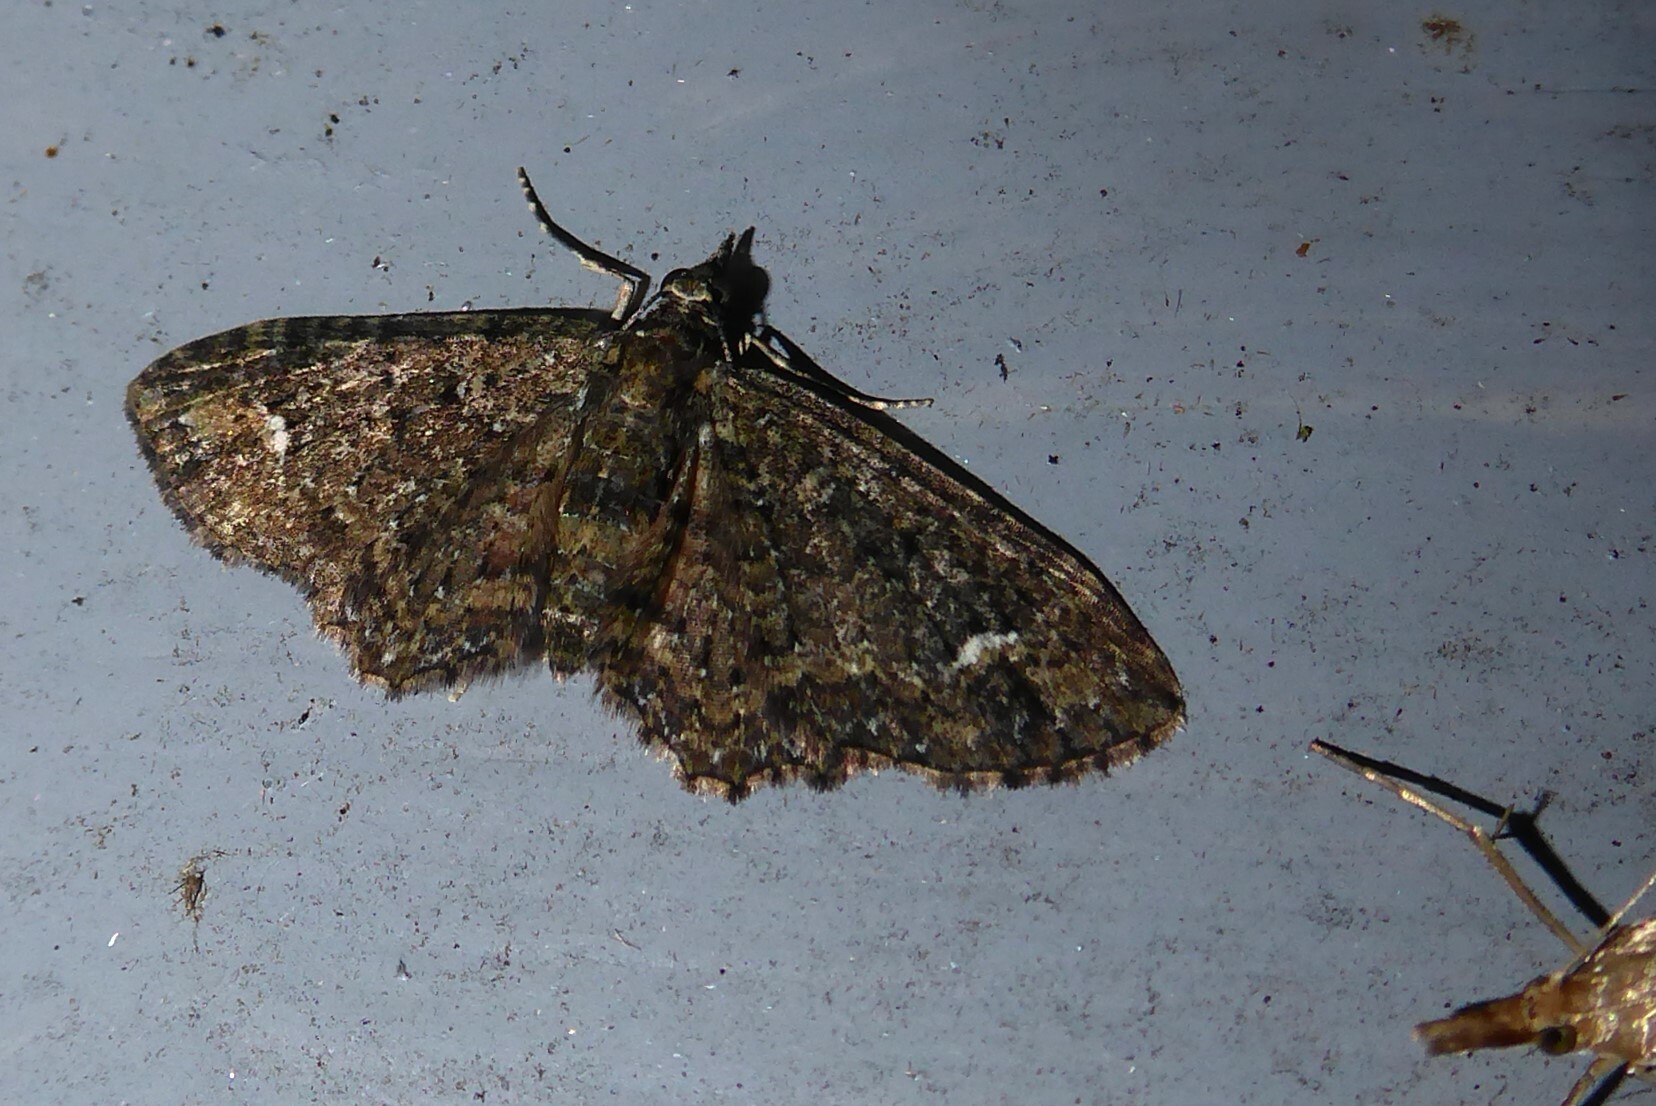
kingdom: Animalia
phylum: Arthropoda
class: Insecta
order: Lepidoptera
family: Geometridae
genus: Pasiphilodes
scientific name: Pasiphilodes testulata
